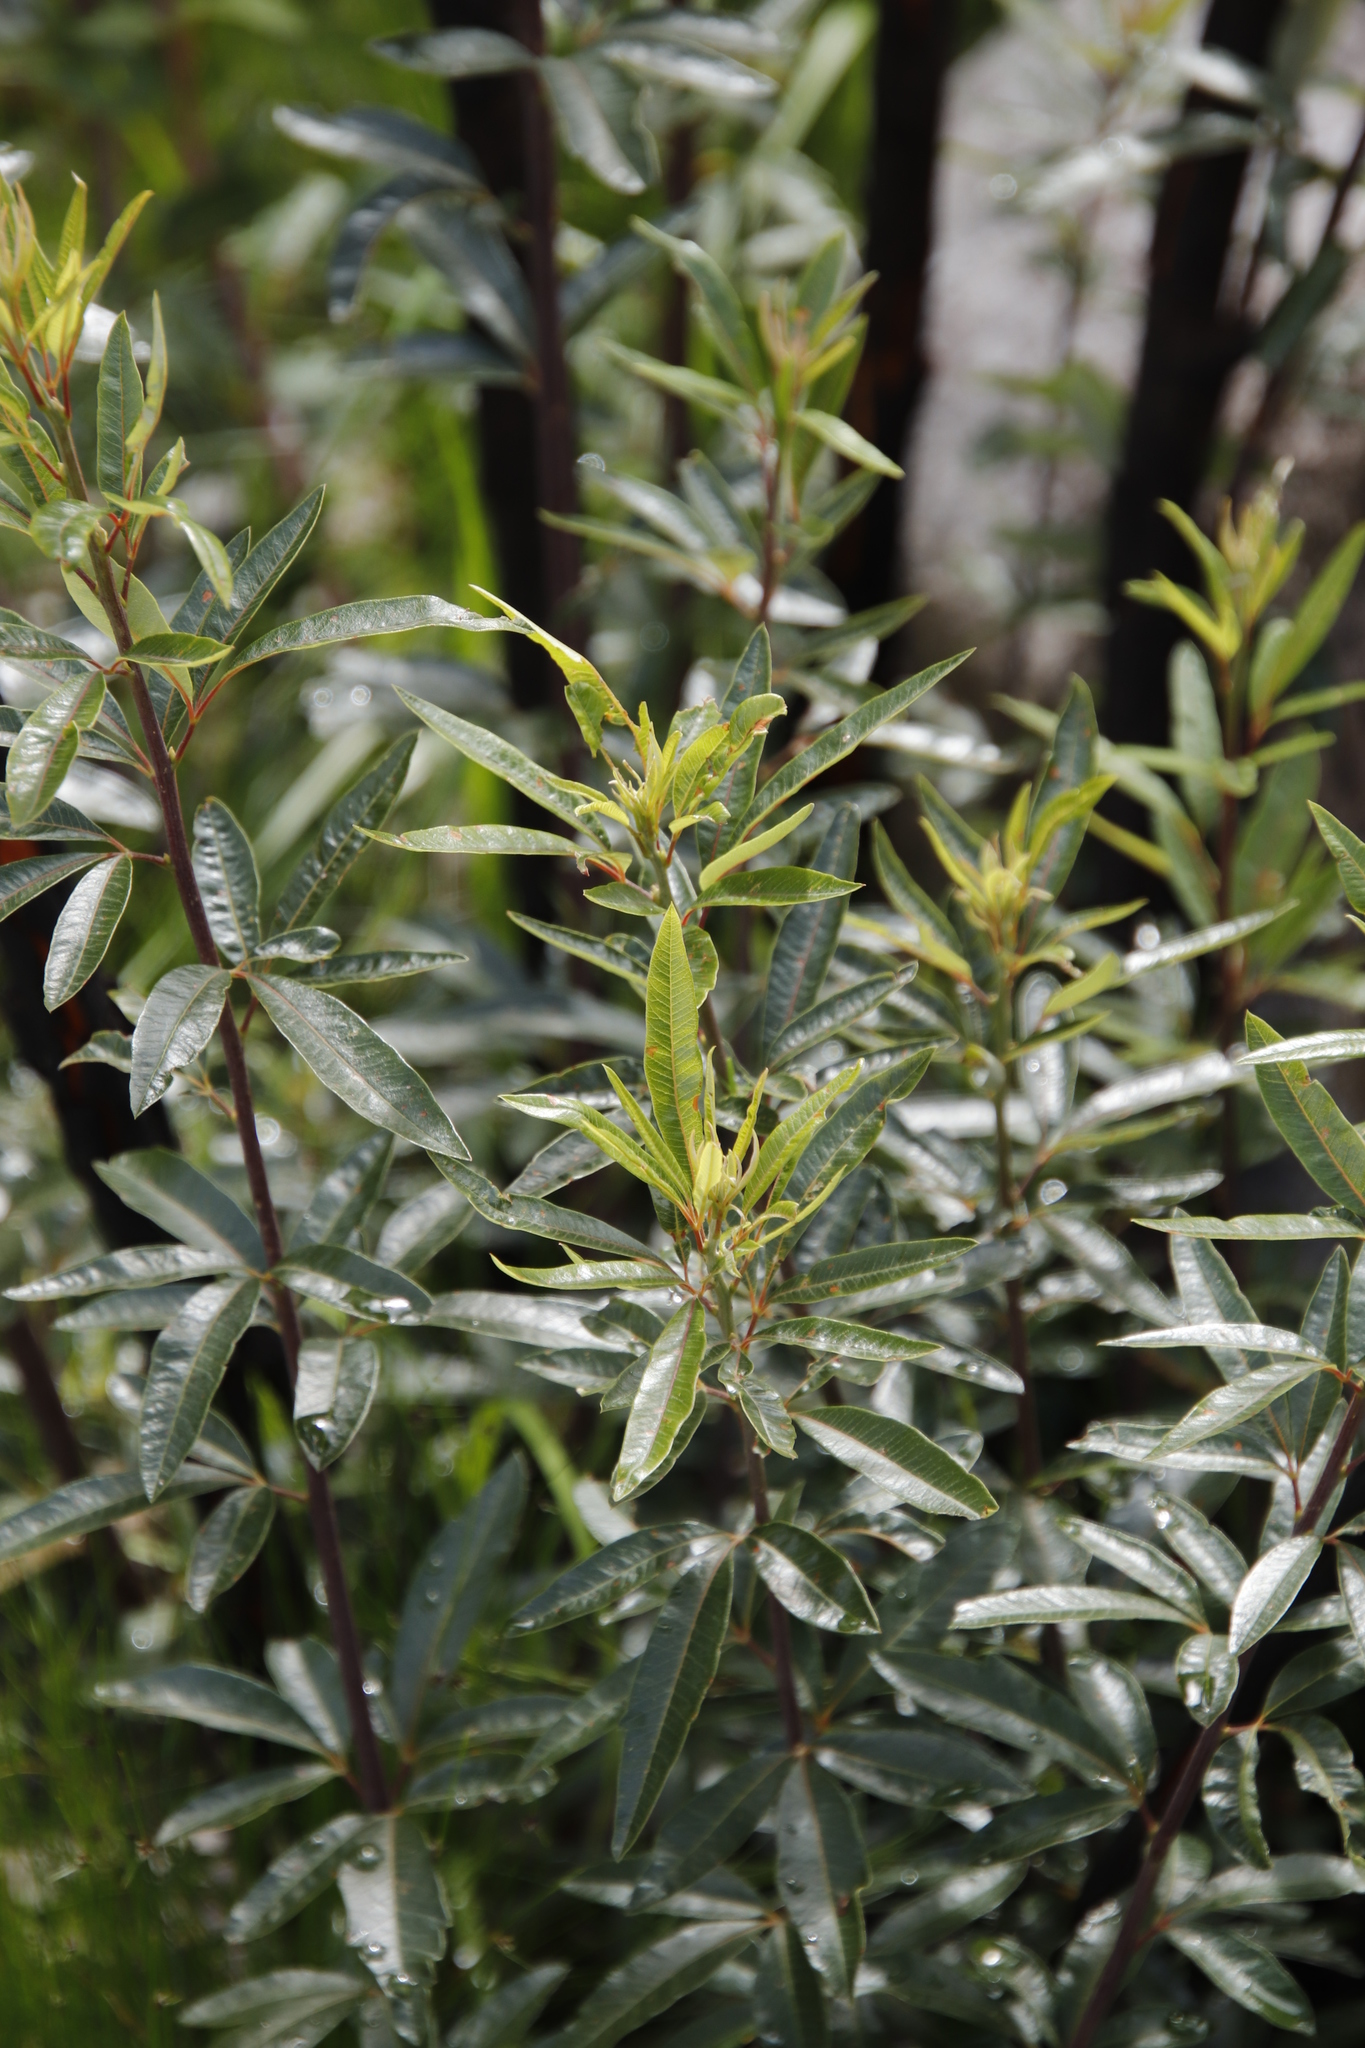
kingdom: Plantae
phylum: Tracheophyta
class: Magnoliopsida
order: Sapindales
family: Anacardiaceae
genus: Searsia
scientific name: Searsia angustifolia
